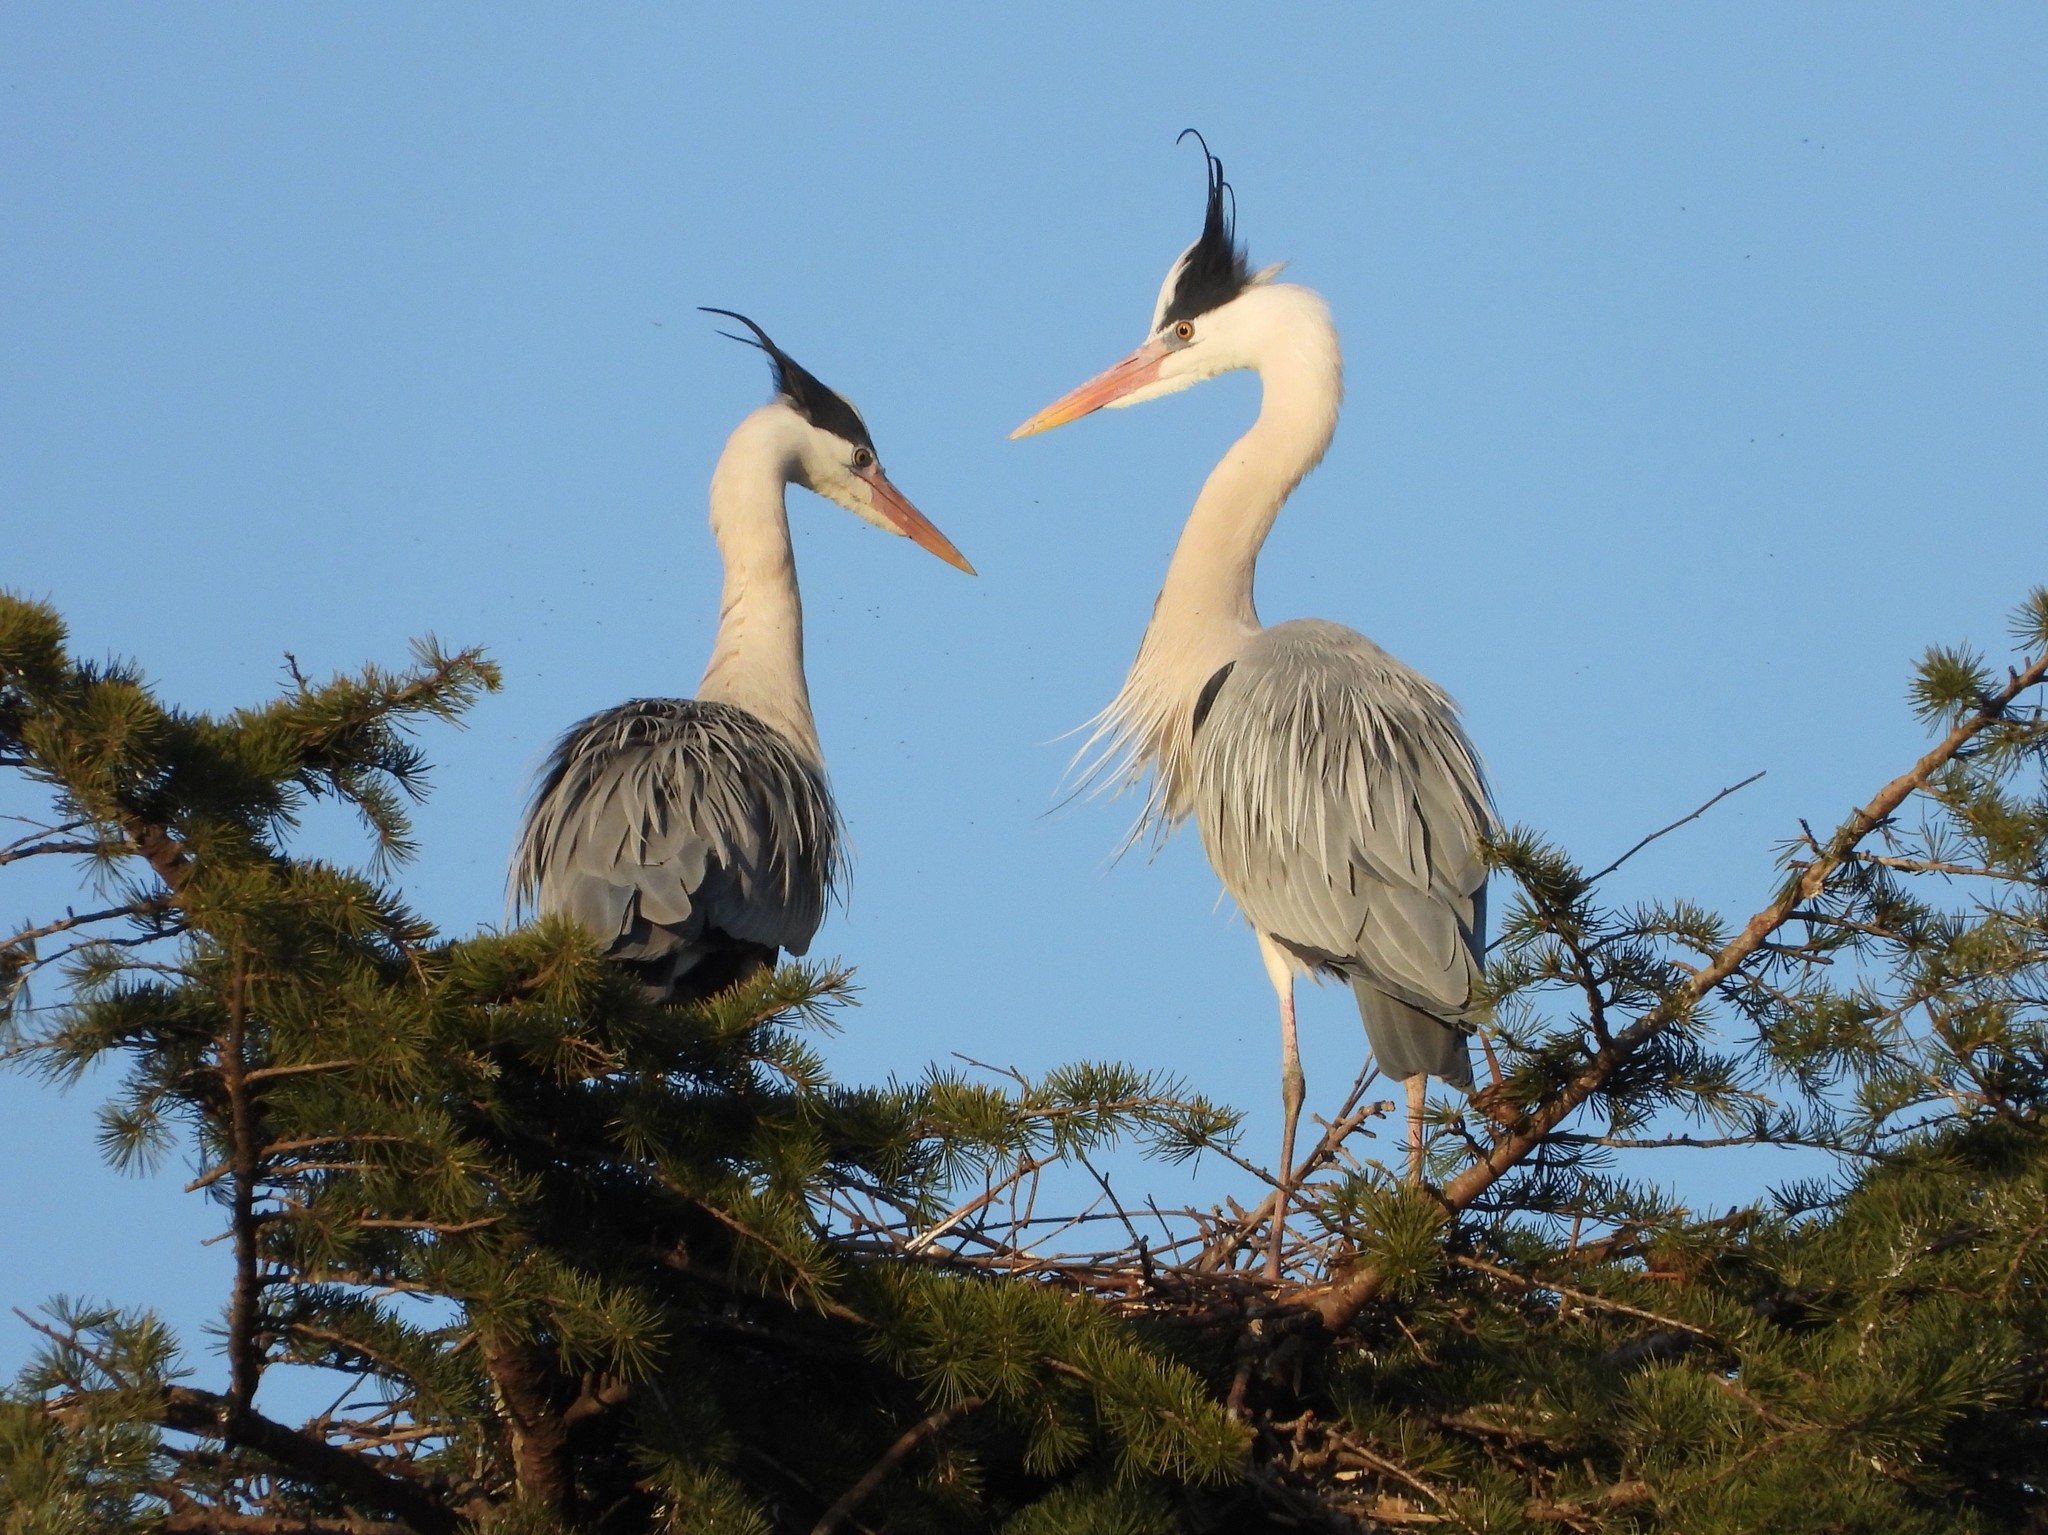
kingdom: Animalia
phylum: Chordata
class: Aves
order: Pelecaniformes
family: Ardeidae
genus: Ardea
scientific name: Ardea cinerea
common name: Grey heron
